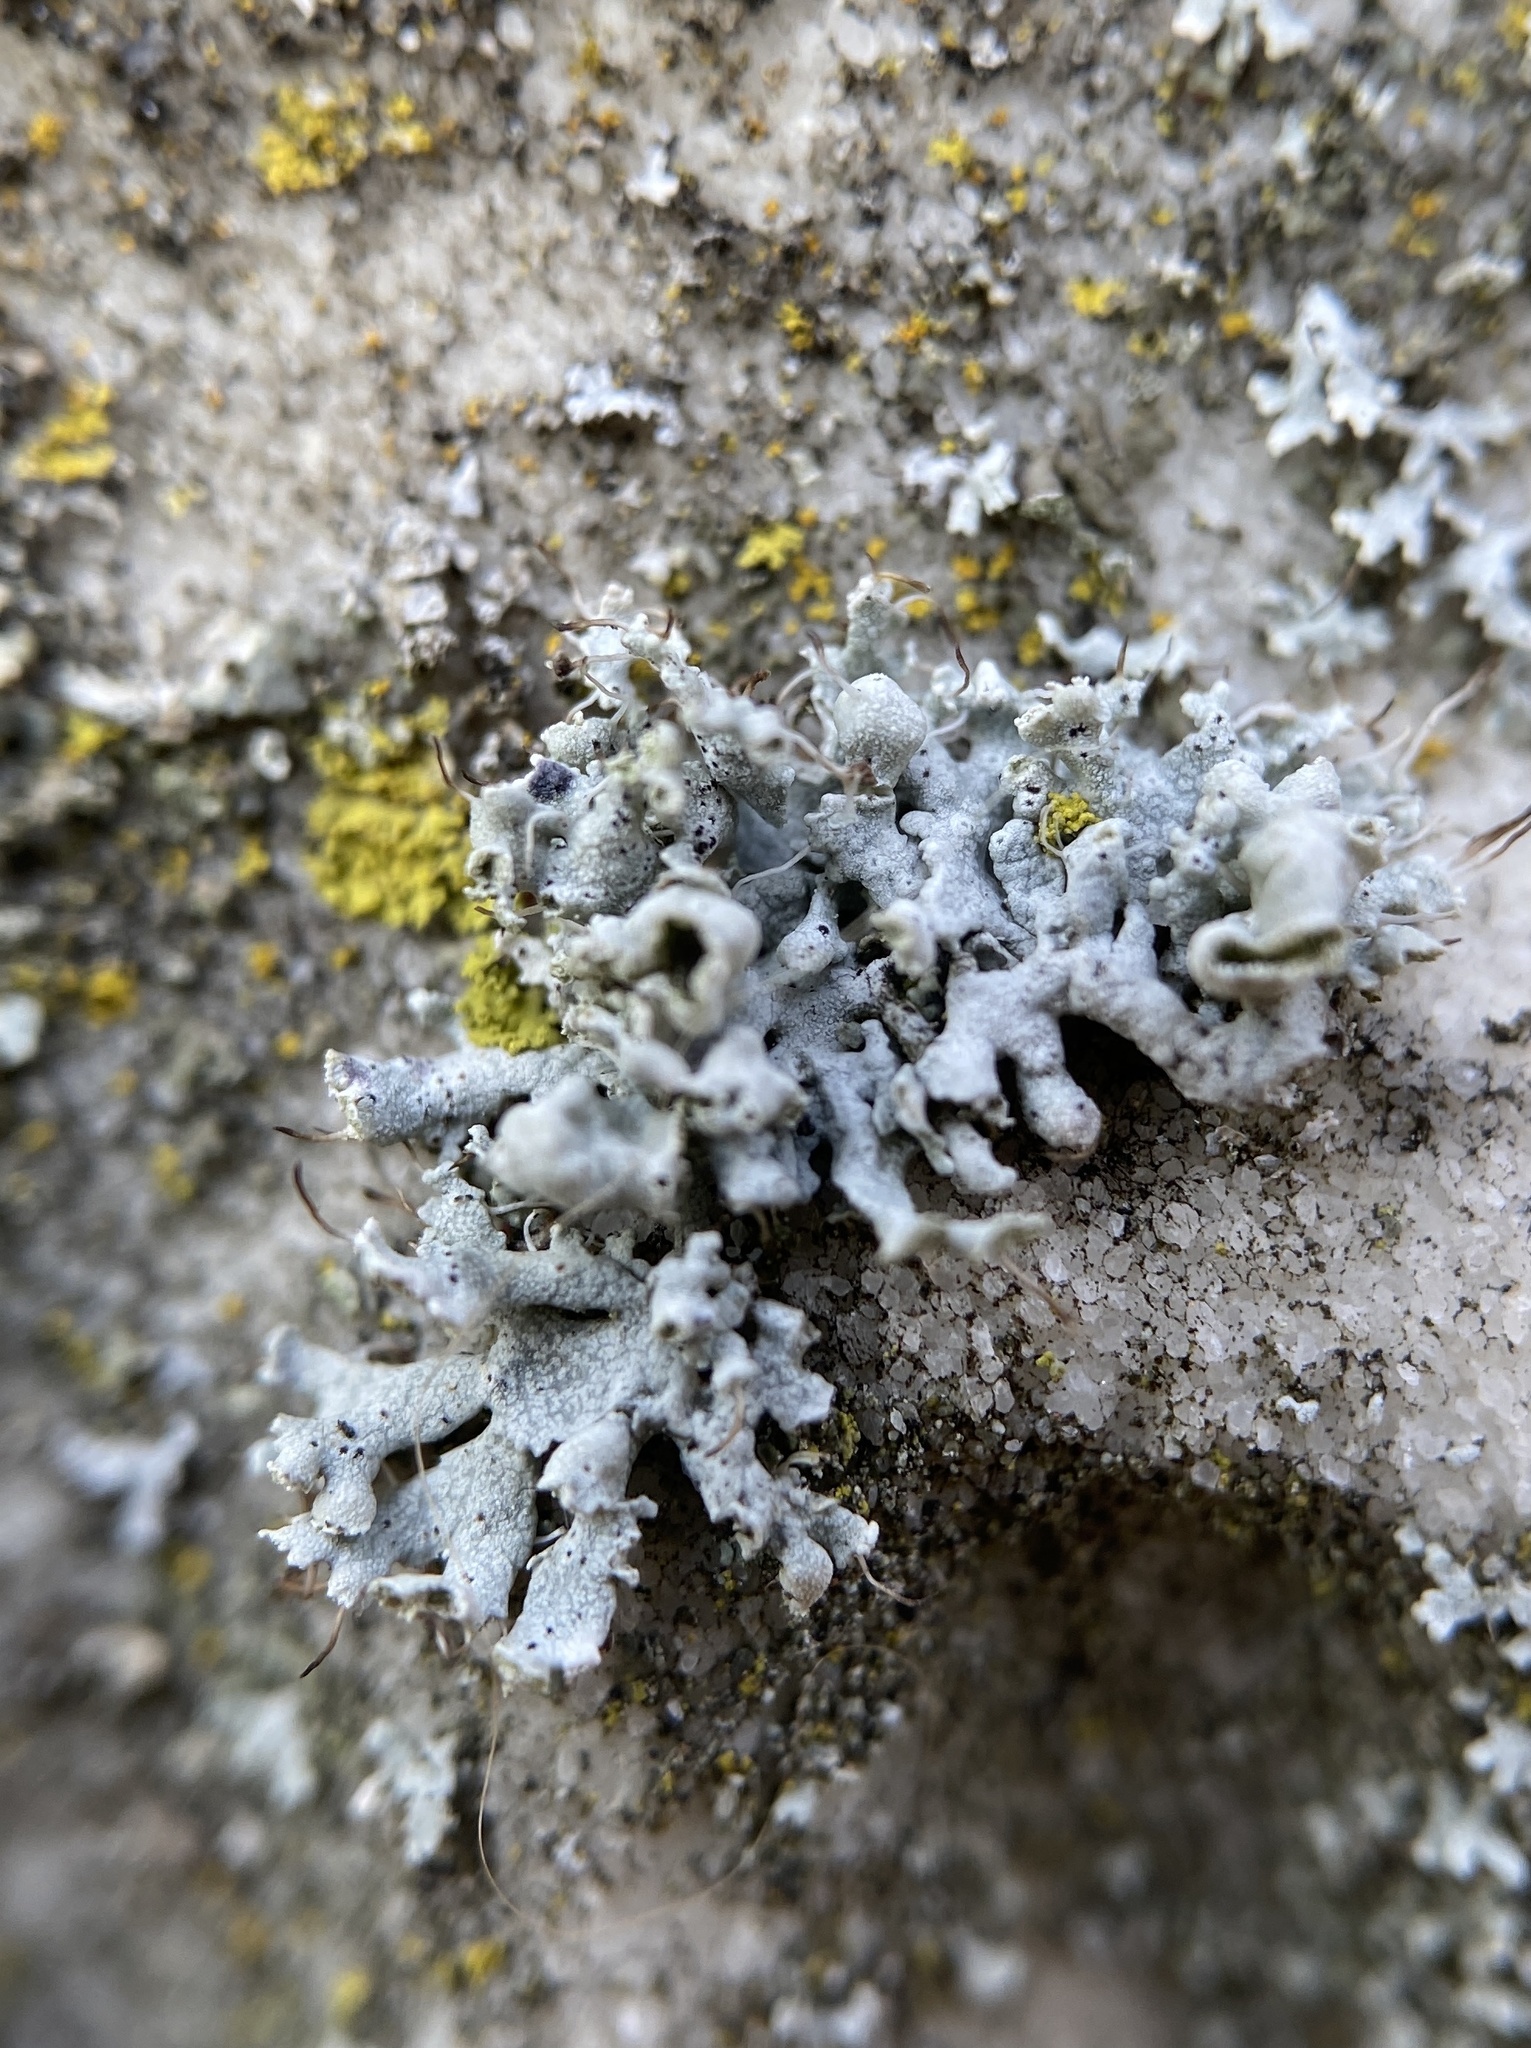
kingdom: Fungi
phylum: Ascomycota
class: Lecanoromycetes
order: Caliciales
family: Physciaceae
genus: Physcia
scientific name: Physcia adscendens
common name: Hooded rosette lichen
